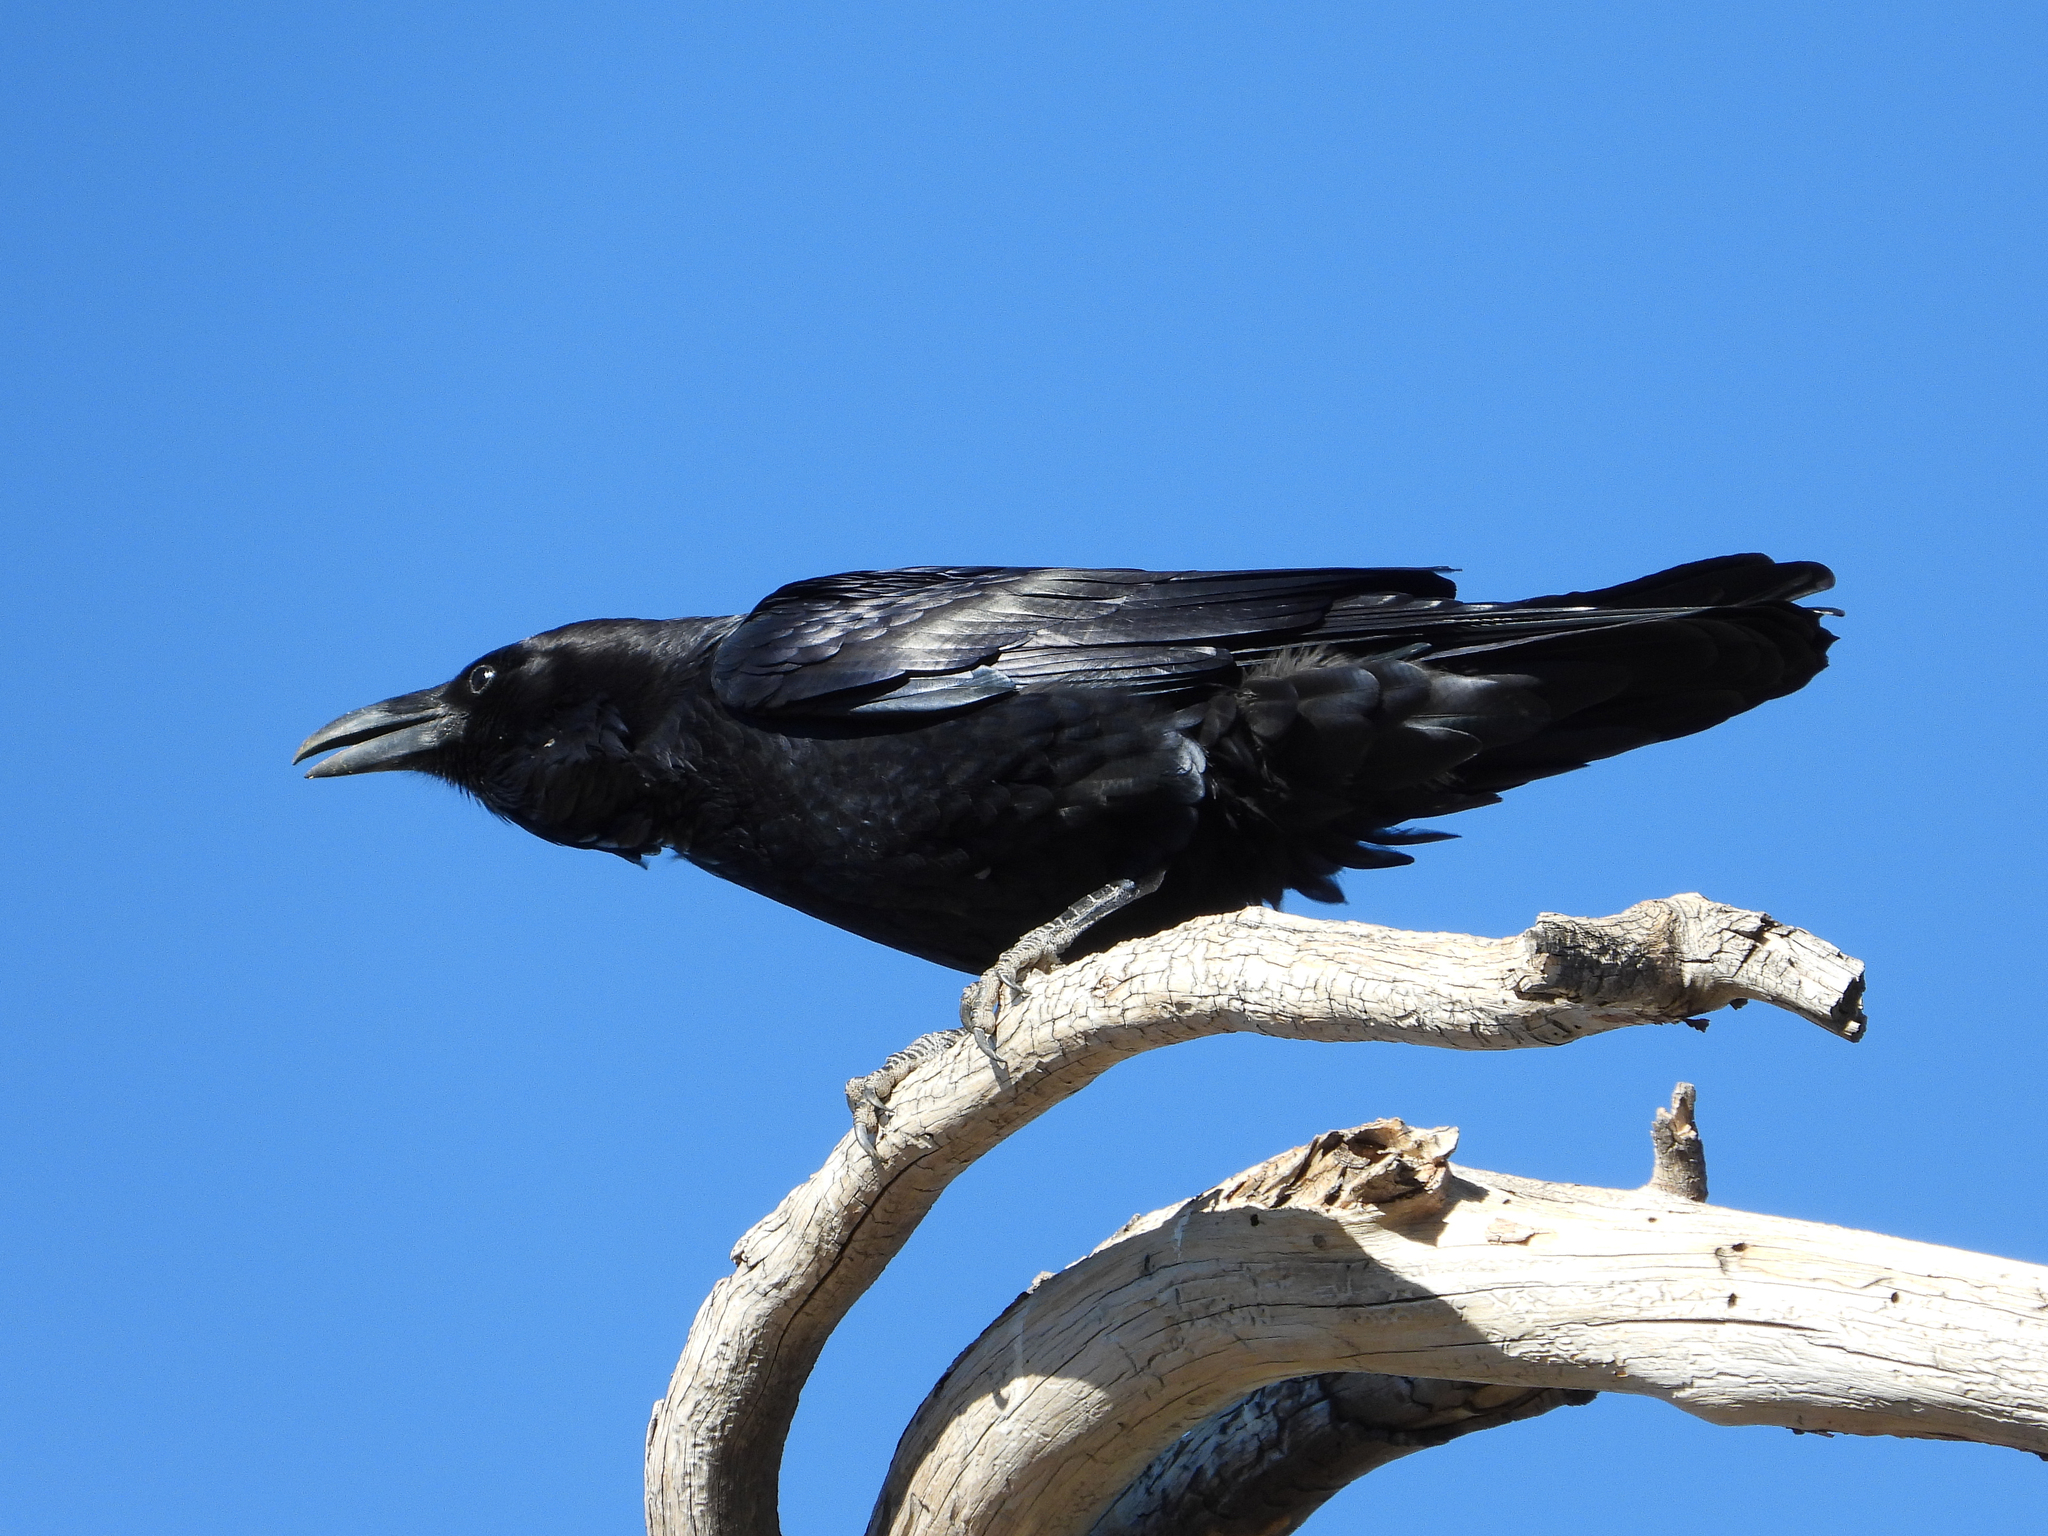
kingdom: Animalia
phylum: Chordata
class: Aves
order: Passeriformes
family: Corvidae
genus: Corvus
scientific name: Corvus corax
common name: Common raven
